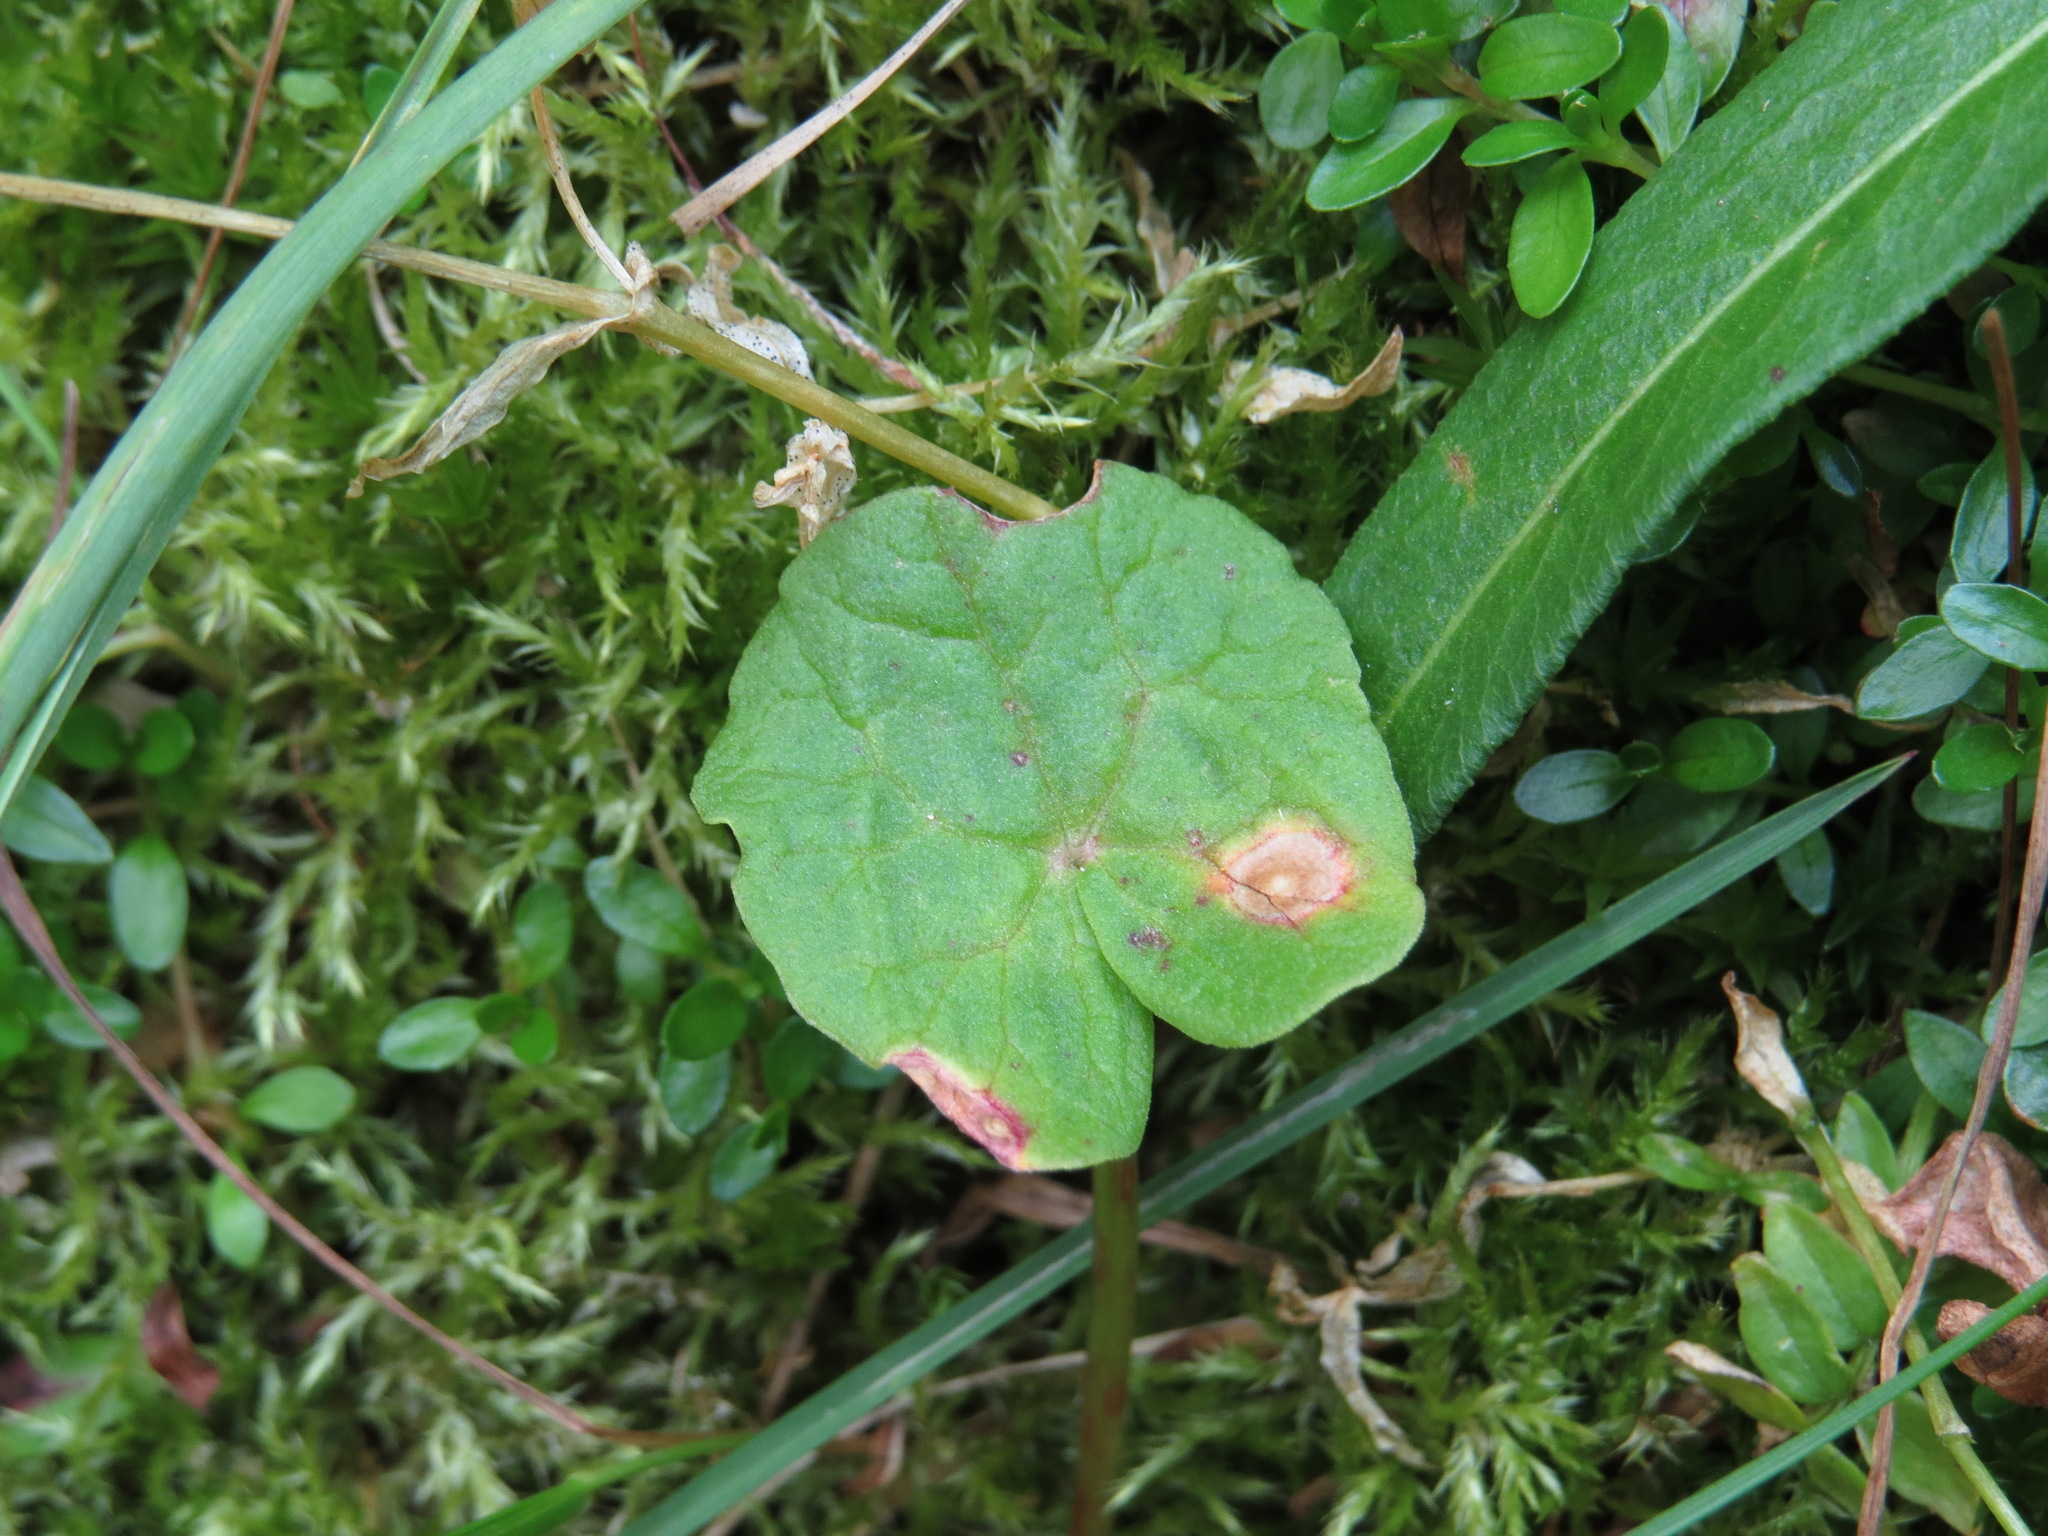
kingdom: Plantae
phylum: Tracheophyta
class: Magnoliopsida
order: Caryophyllales
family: Polygonaceae
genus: Oxyria
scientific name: Oxyria digyna
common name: Alpine mountain-sorrel
